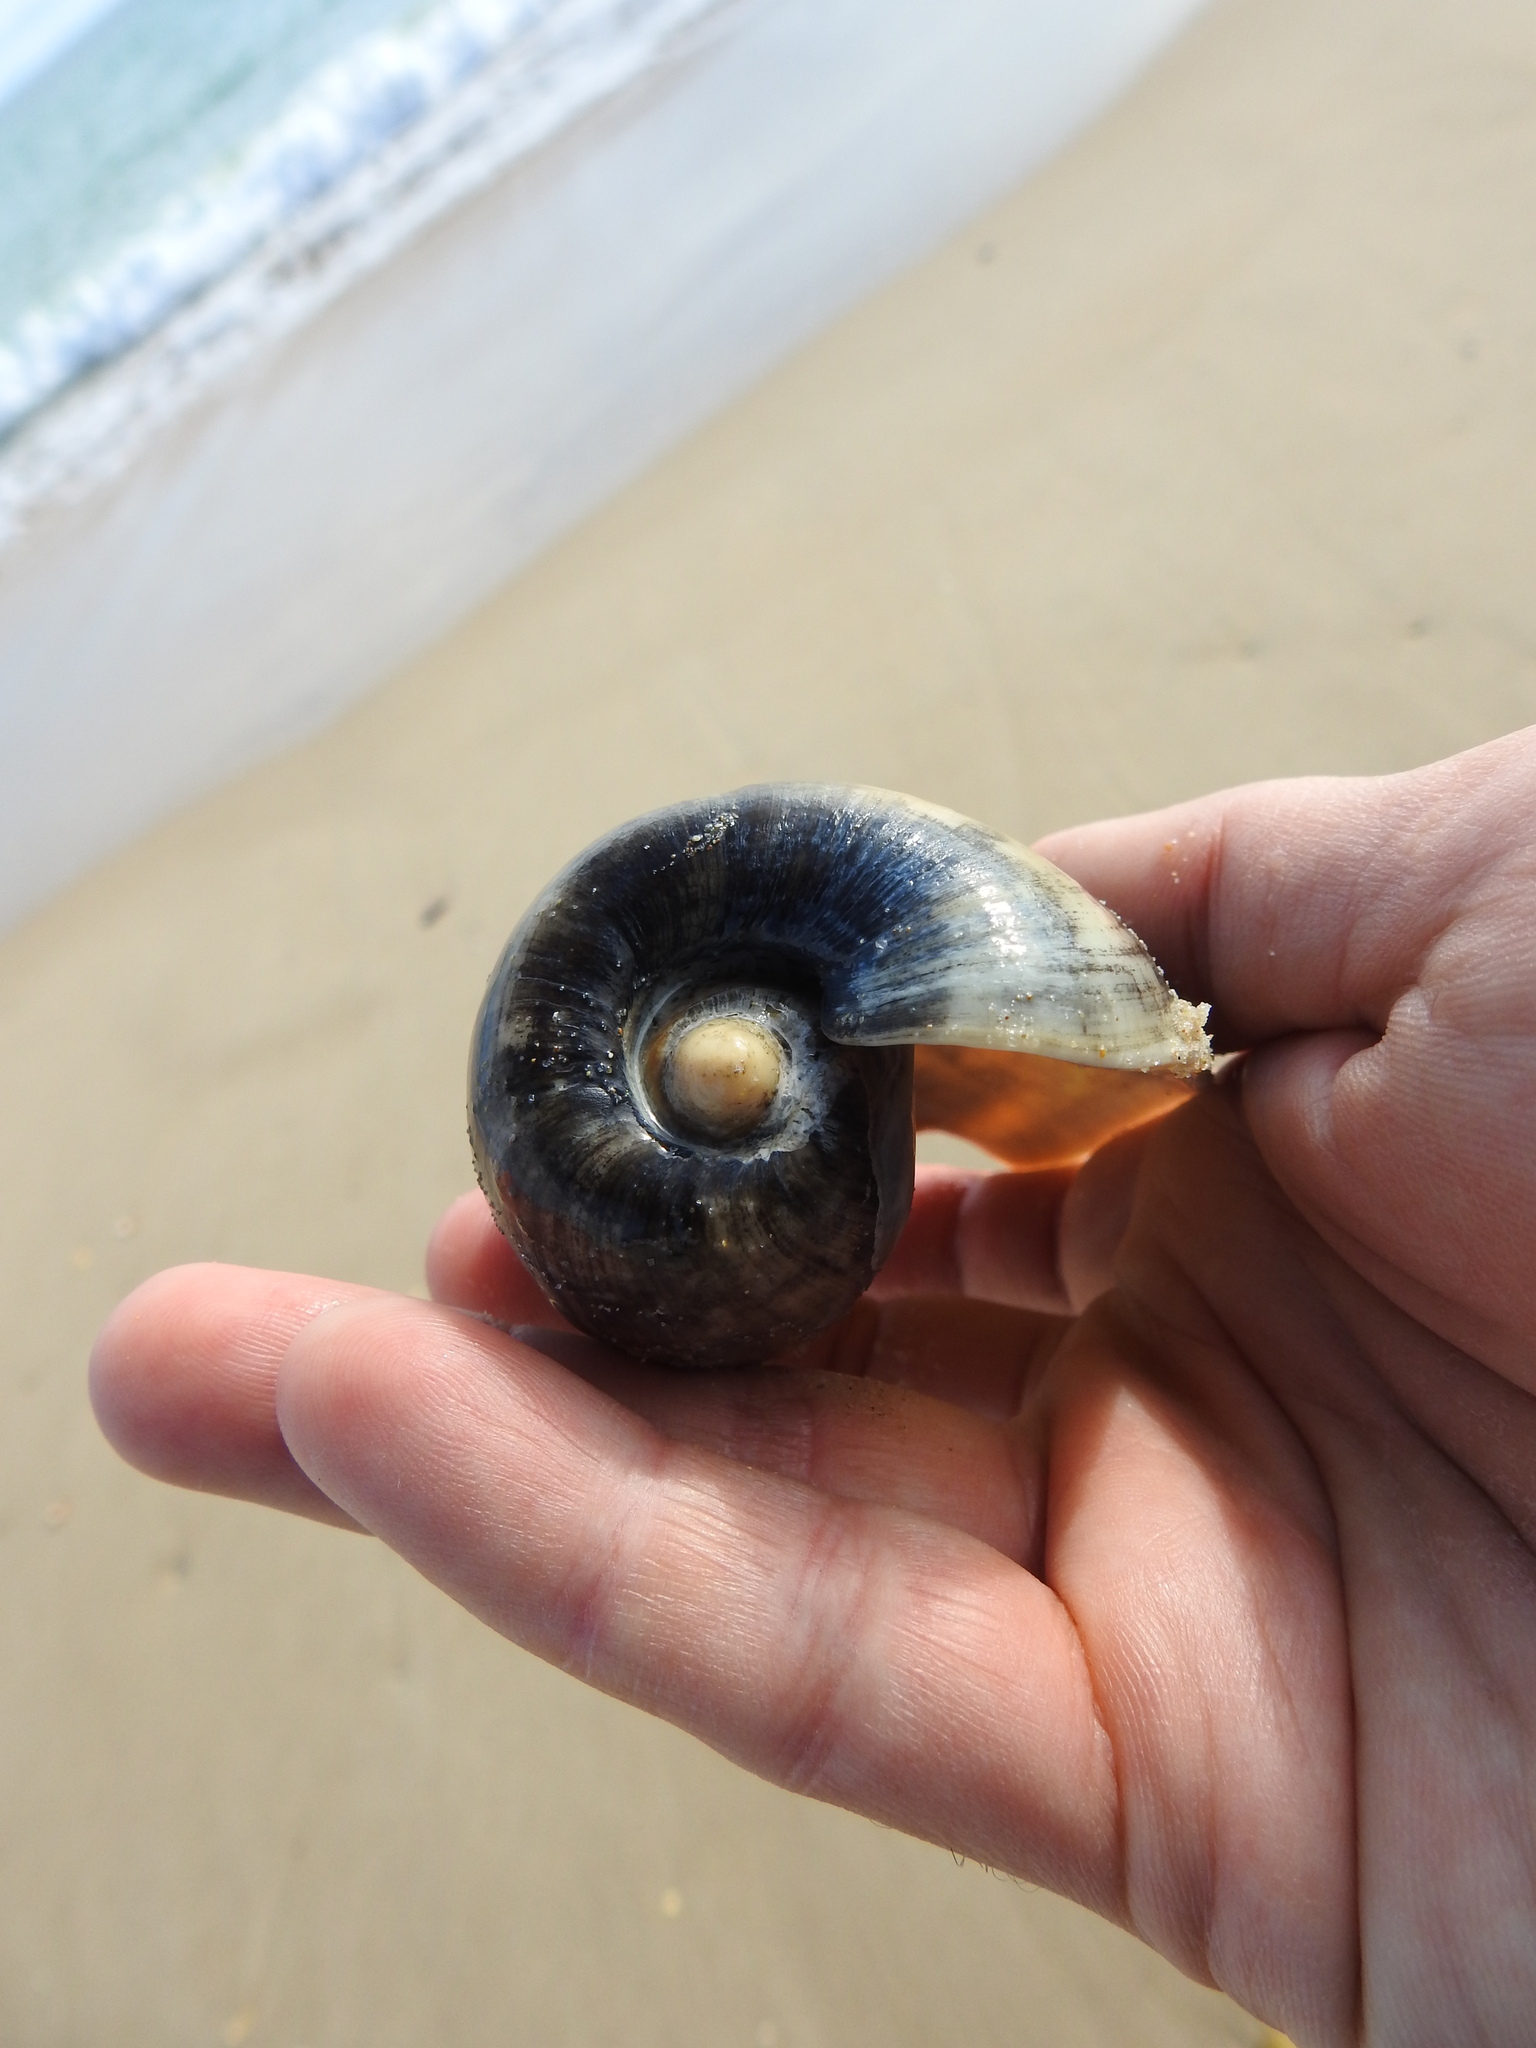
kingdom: Animalia
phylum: Mollusca
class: Gastropoda
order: Neogastropoda
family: Volutidae
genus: Cymbium
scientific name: Cymbium olla
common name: Algarve volute
